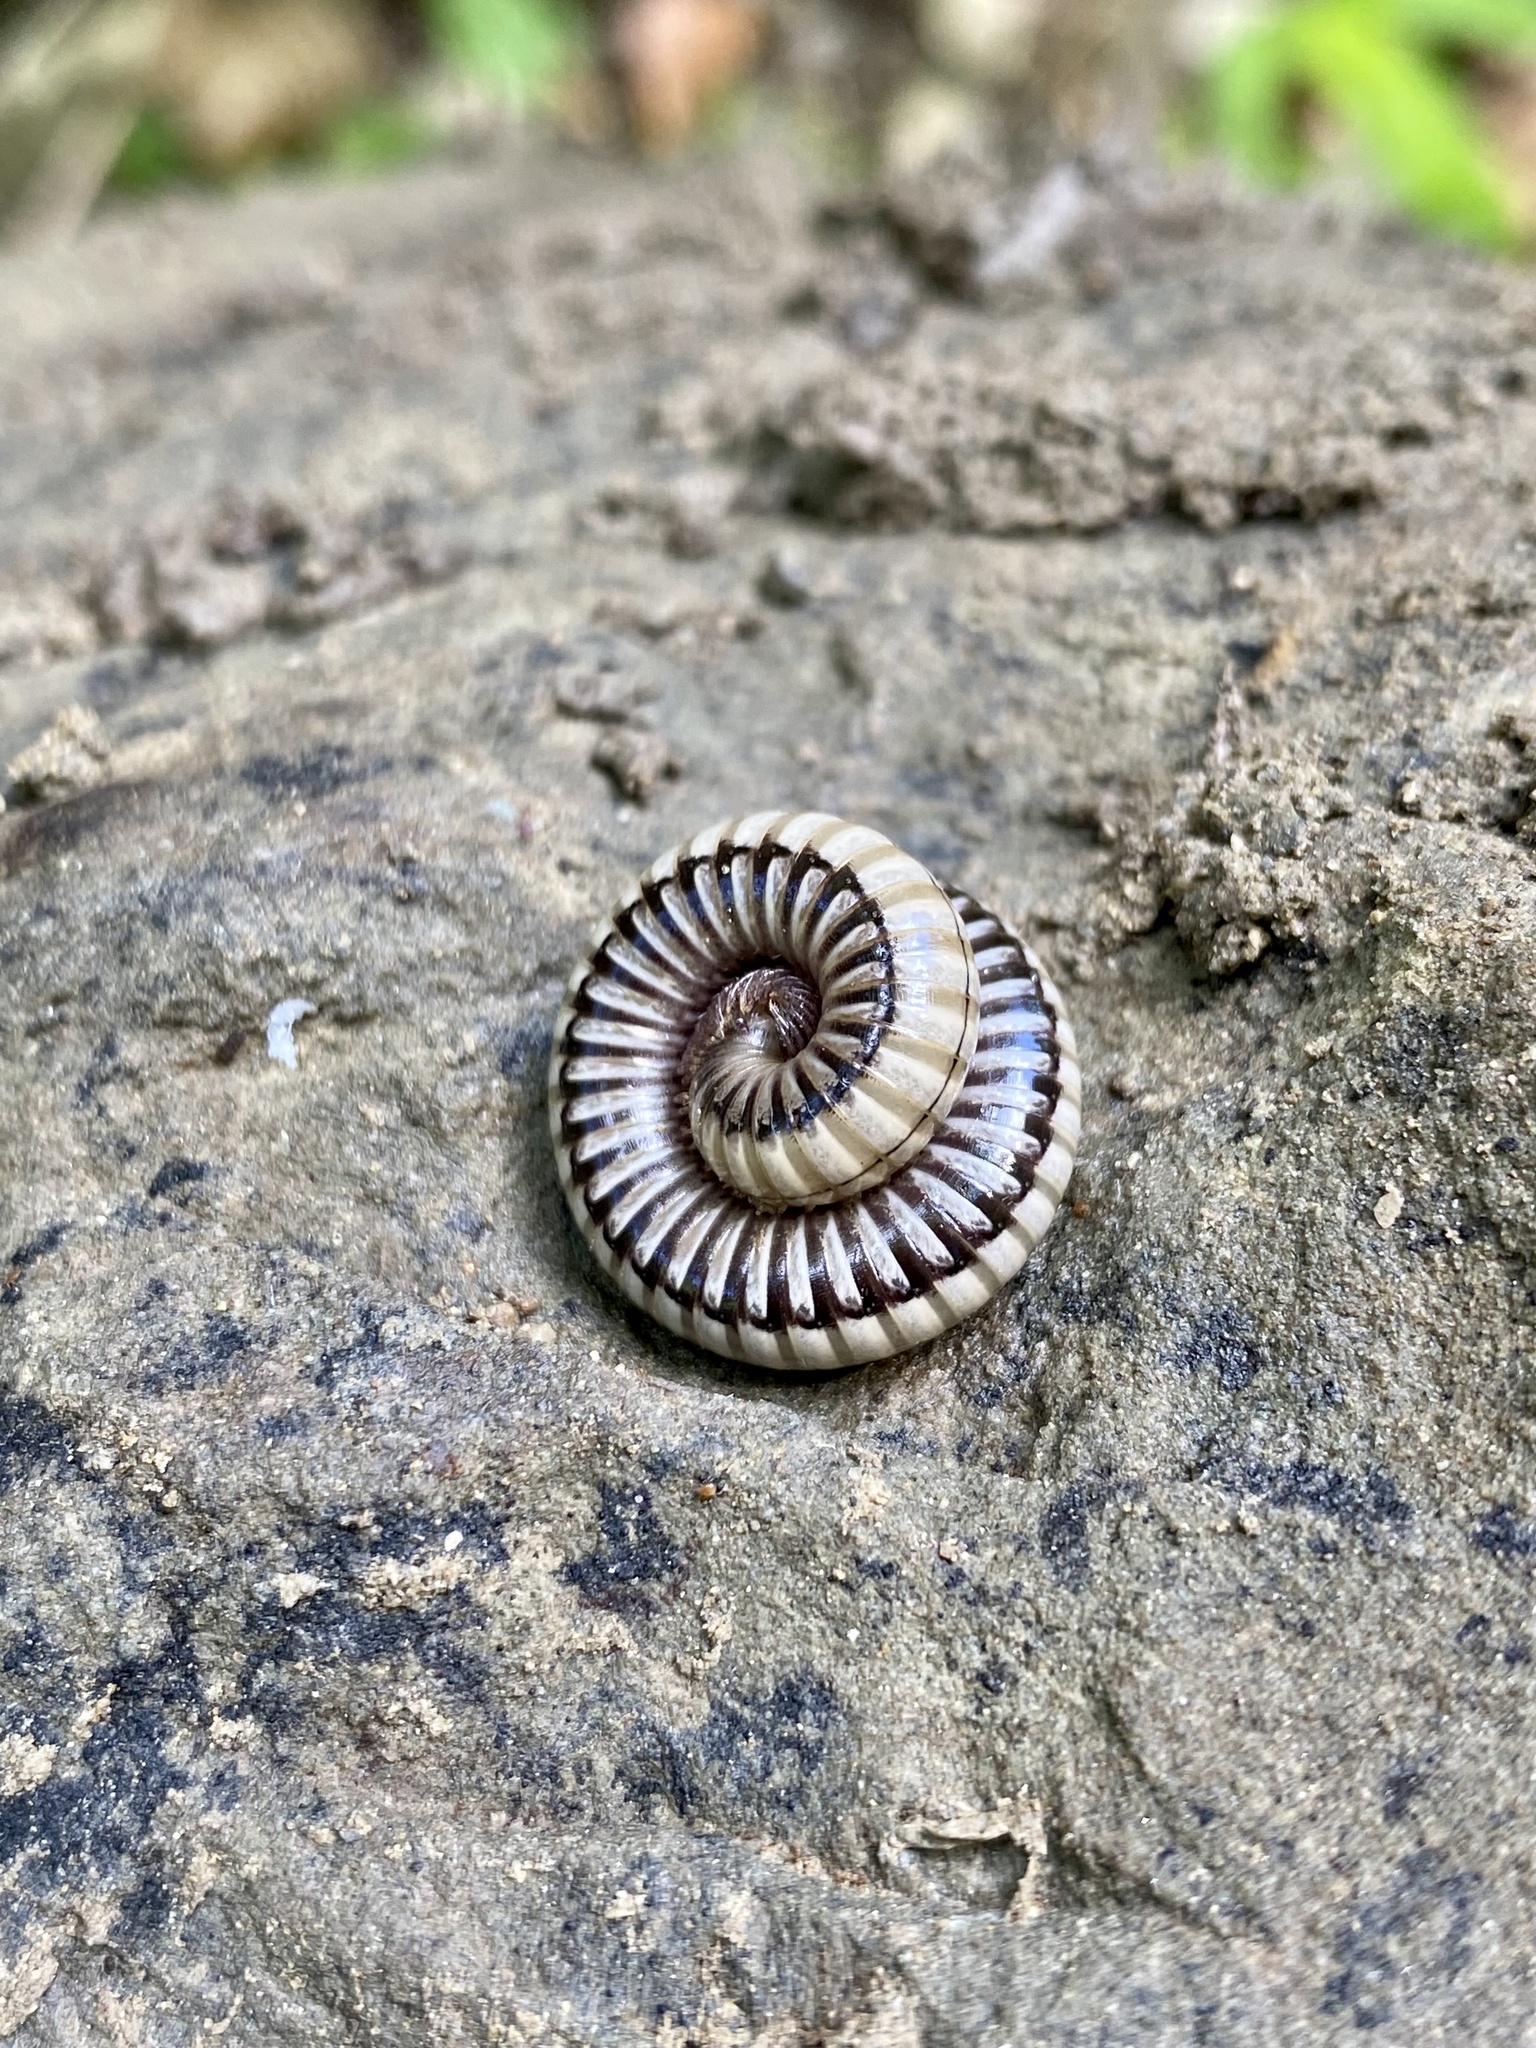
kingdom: Animalia
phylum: Arthropoda
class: Diplopoda
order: Julida
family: Julidae
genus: Pachyiulus
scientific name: Pachyiulus krivolutskyi
